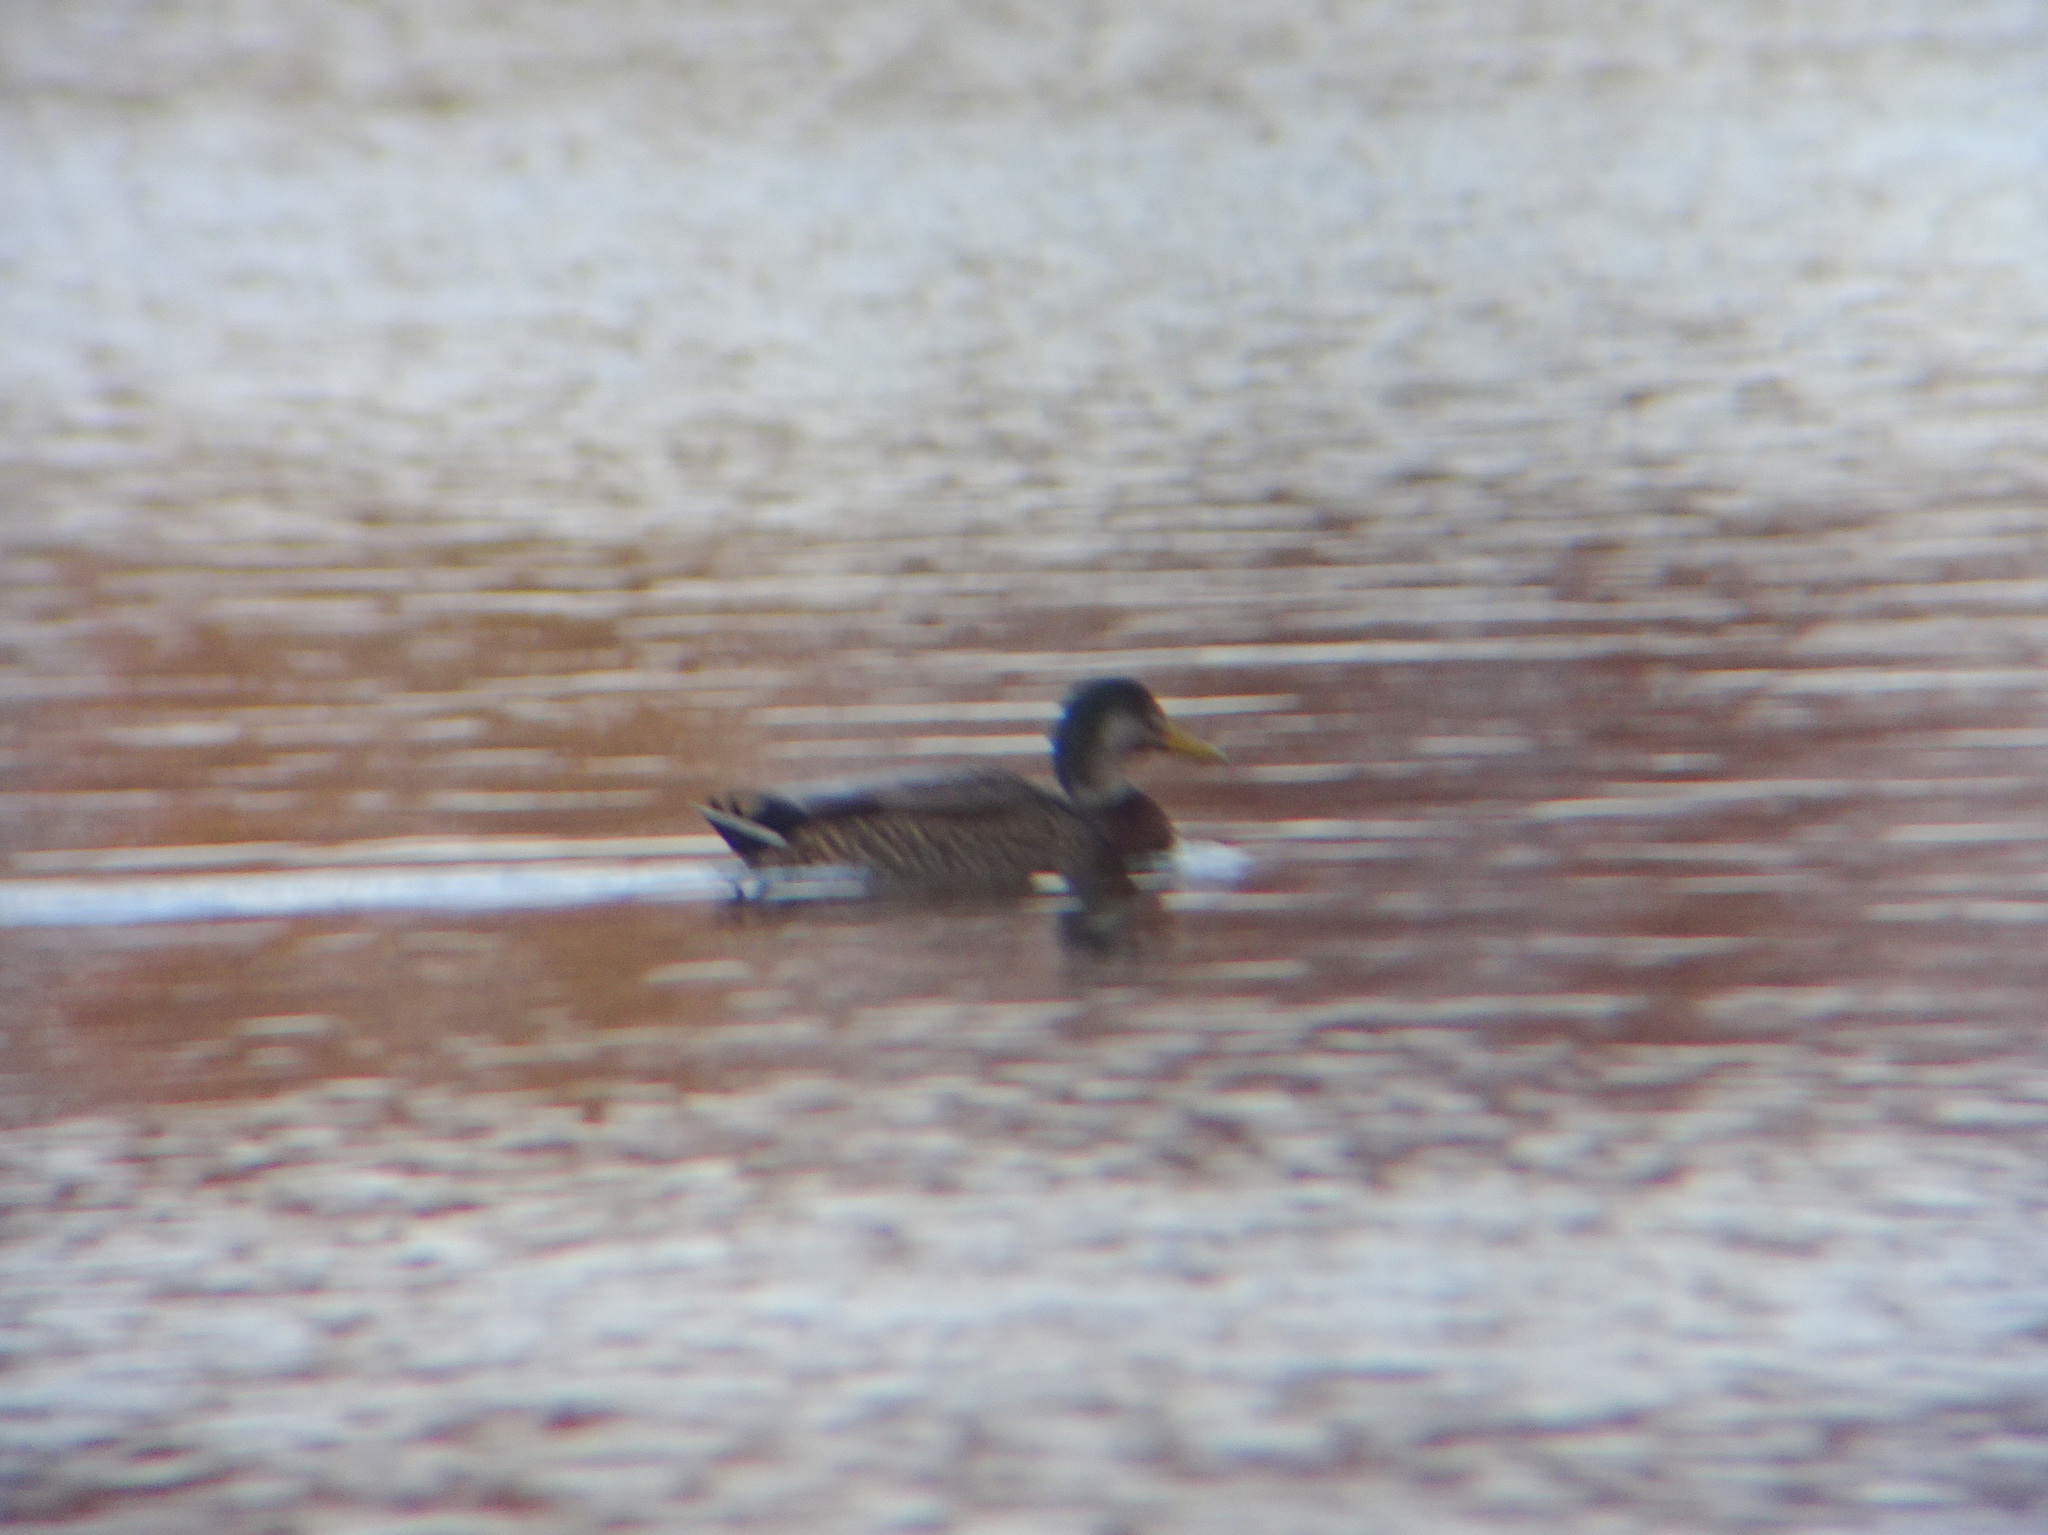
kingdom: Animalia
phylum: Chordata
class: Aves
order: Anseriformes
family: Anatidae
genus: Anas
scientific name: Anas
